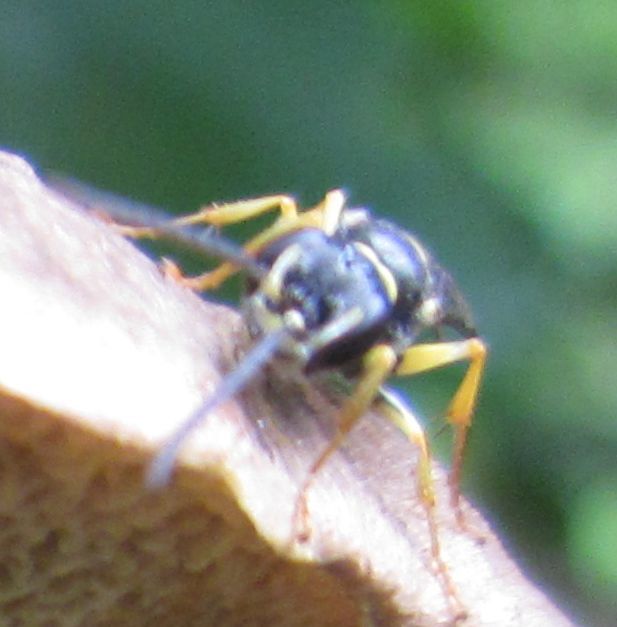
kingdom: Animalia
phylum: Arthropoda
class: Insecta
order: Hymenoptera
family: Crabronidae
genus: Mellinus
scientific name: Mellinus arvensis
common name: Field digger wasp
